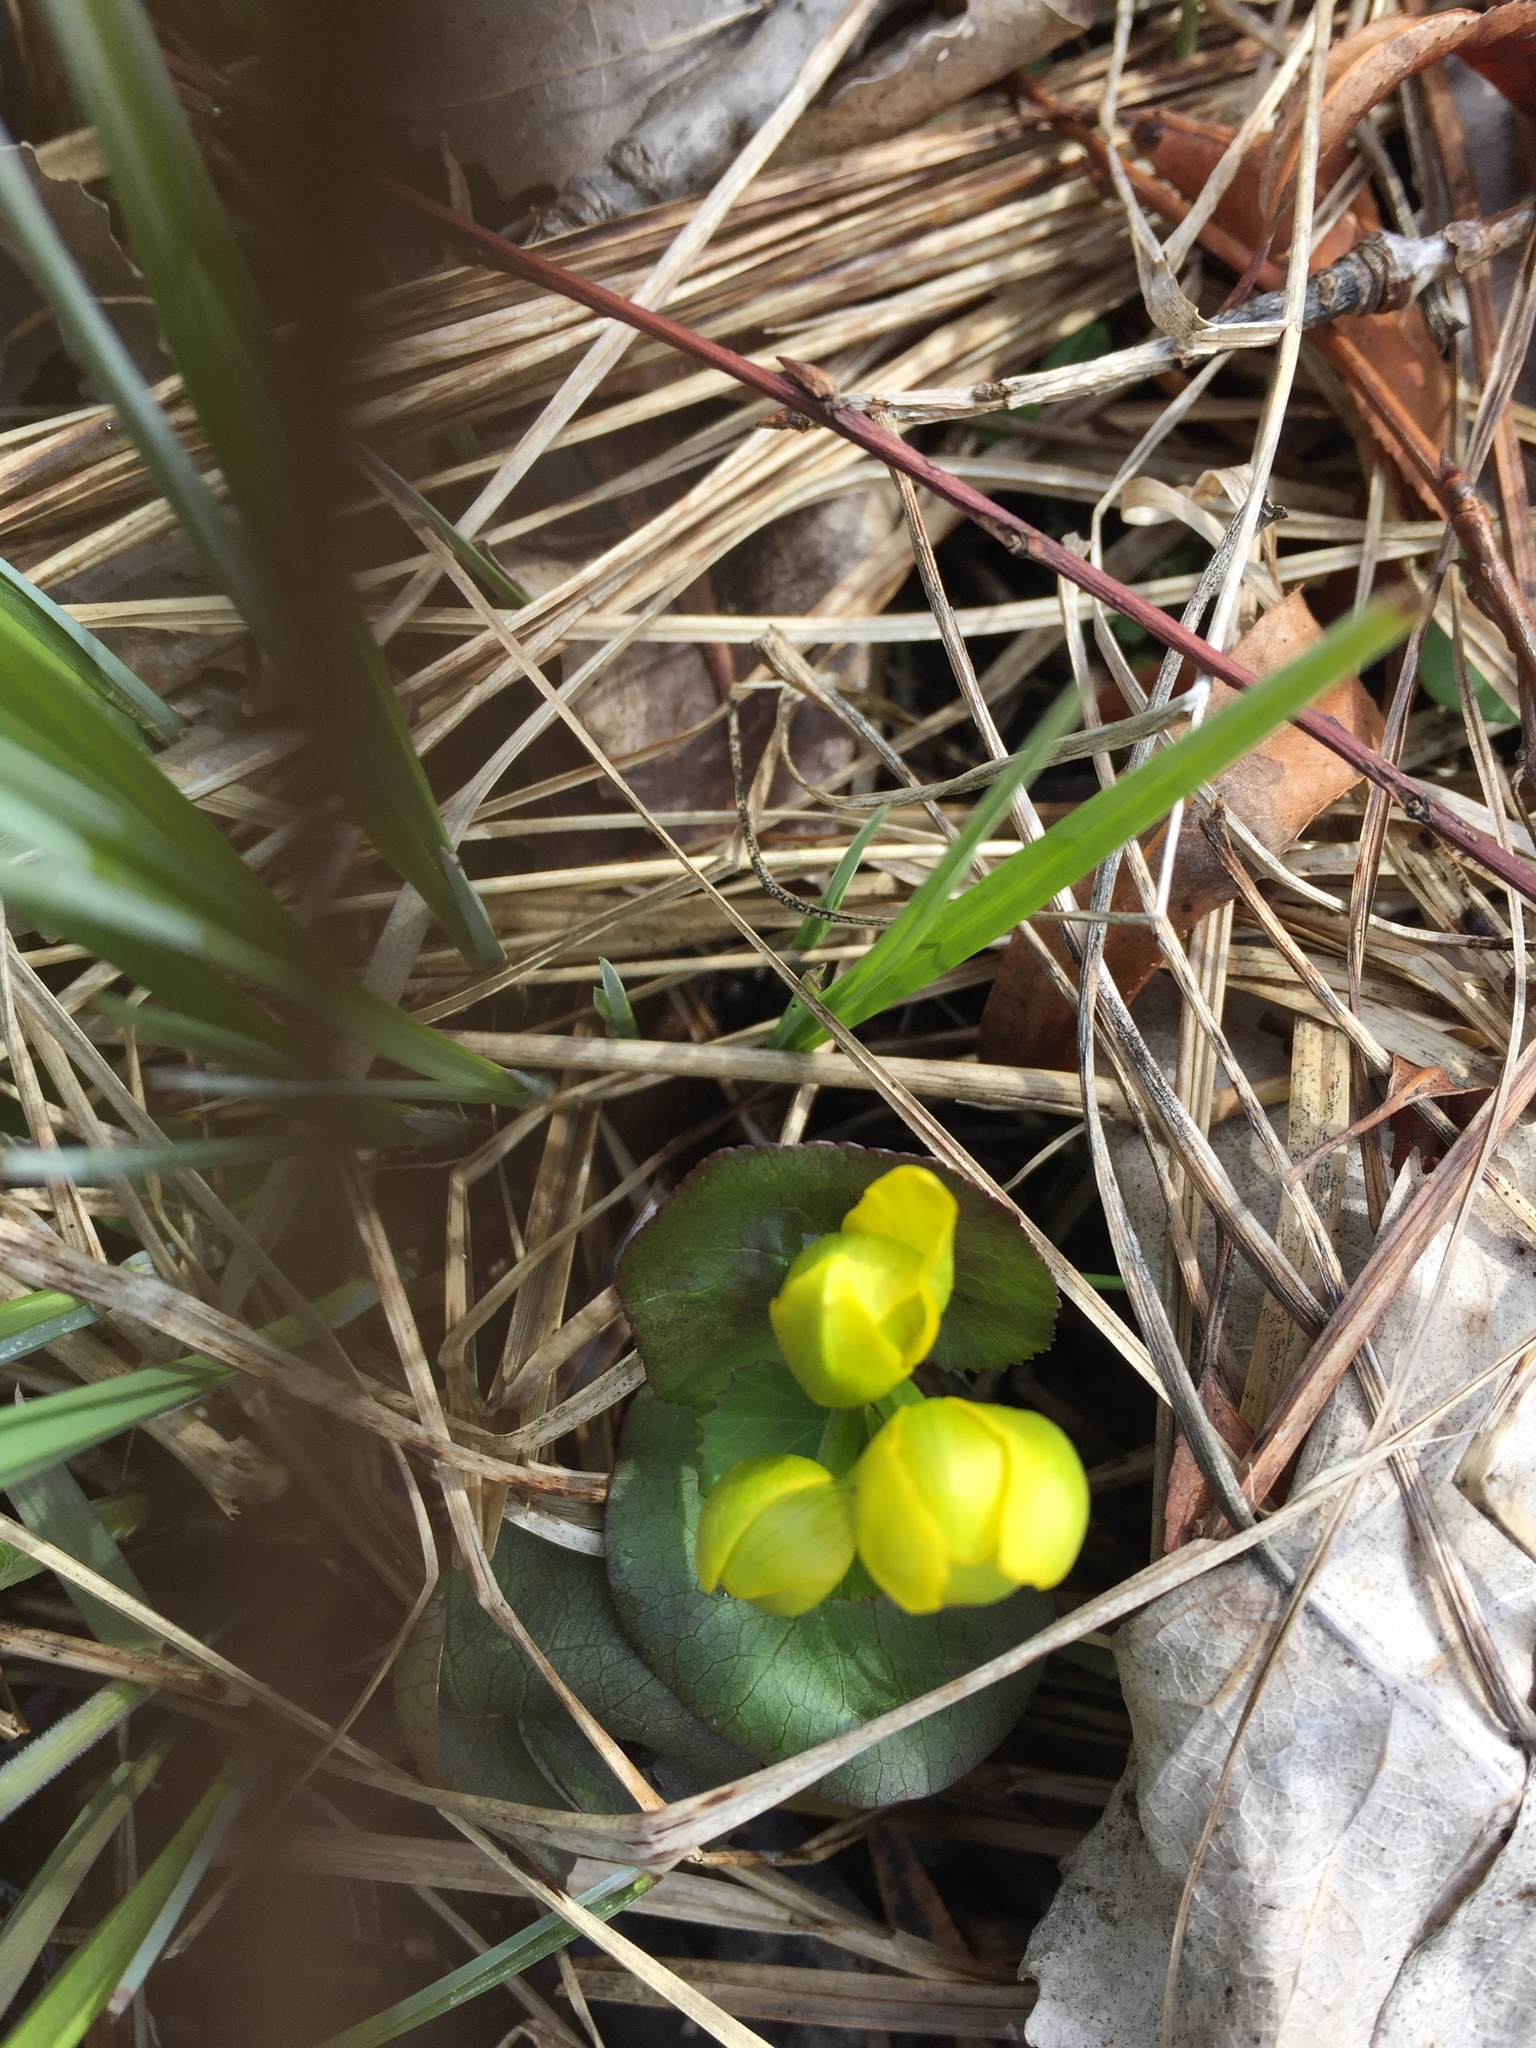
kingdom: Plantae
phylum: Tracheophyta
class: Magnoliopsida
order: Ranunculales
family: Ranunculaceae
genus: Caltha
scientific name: Caltha palustris
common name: Marsh marigold
